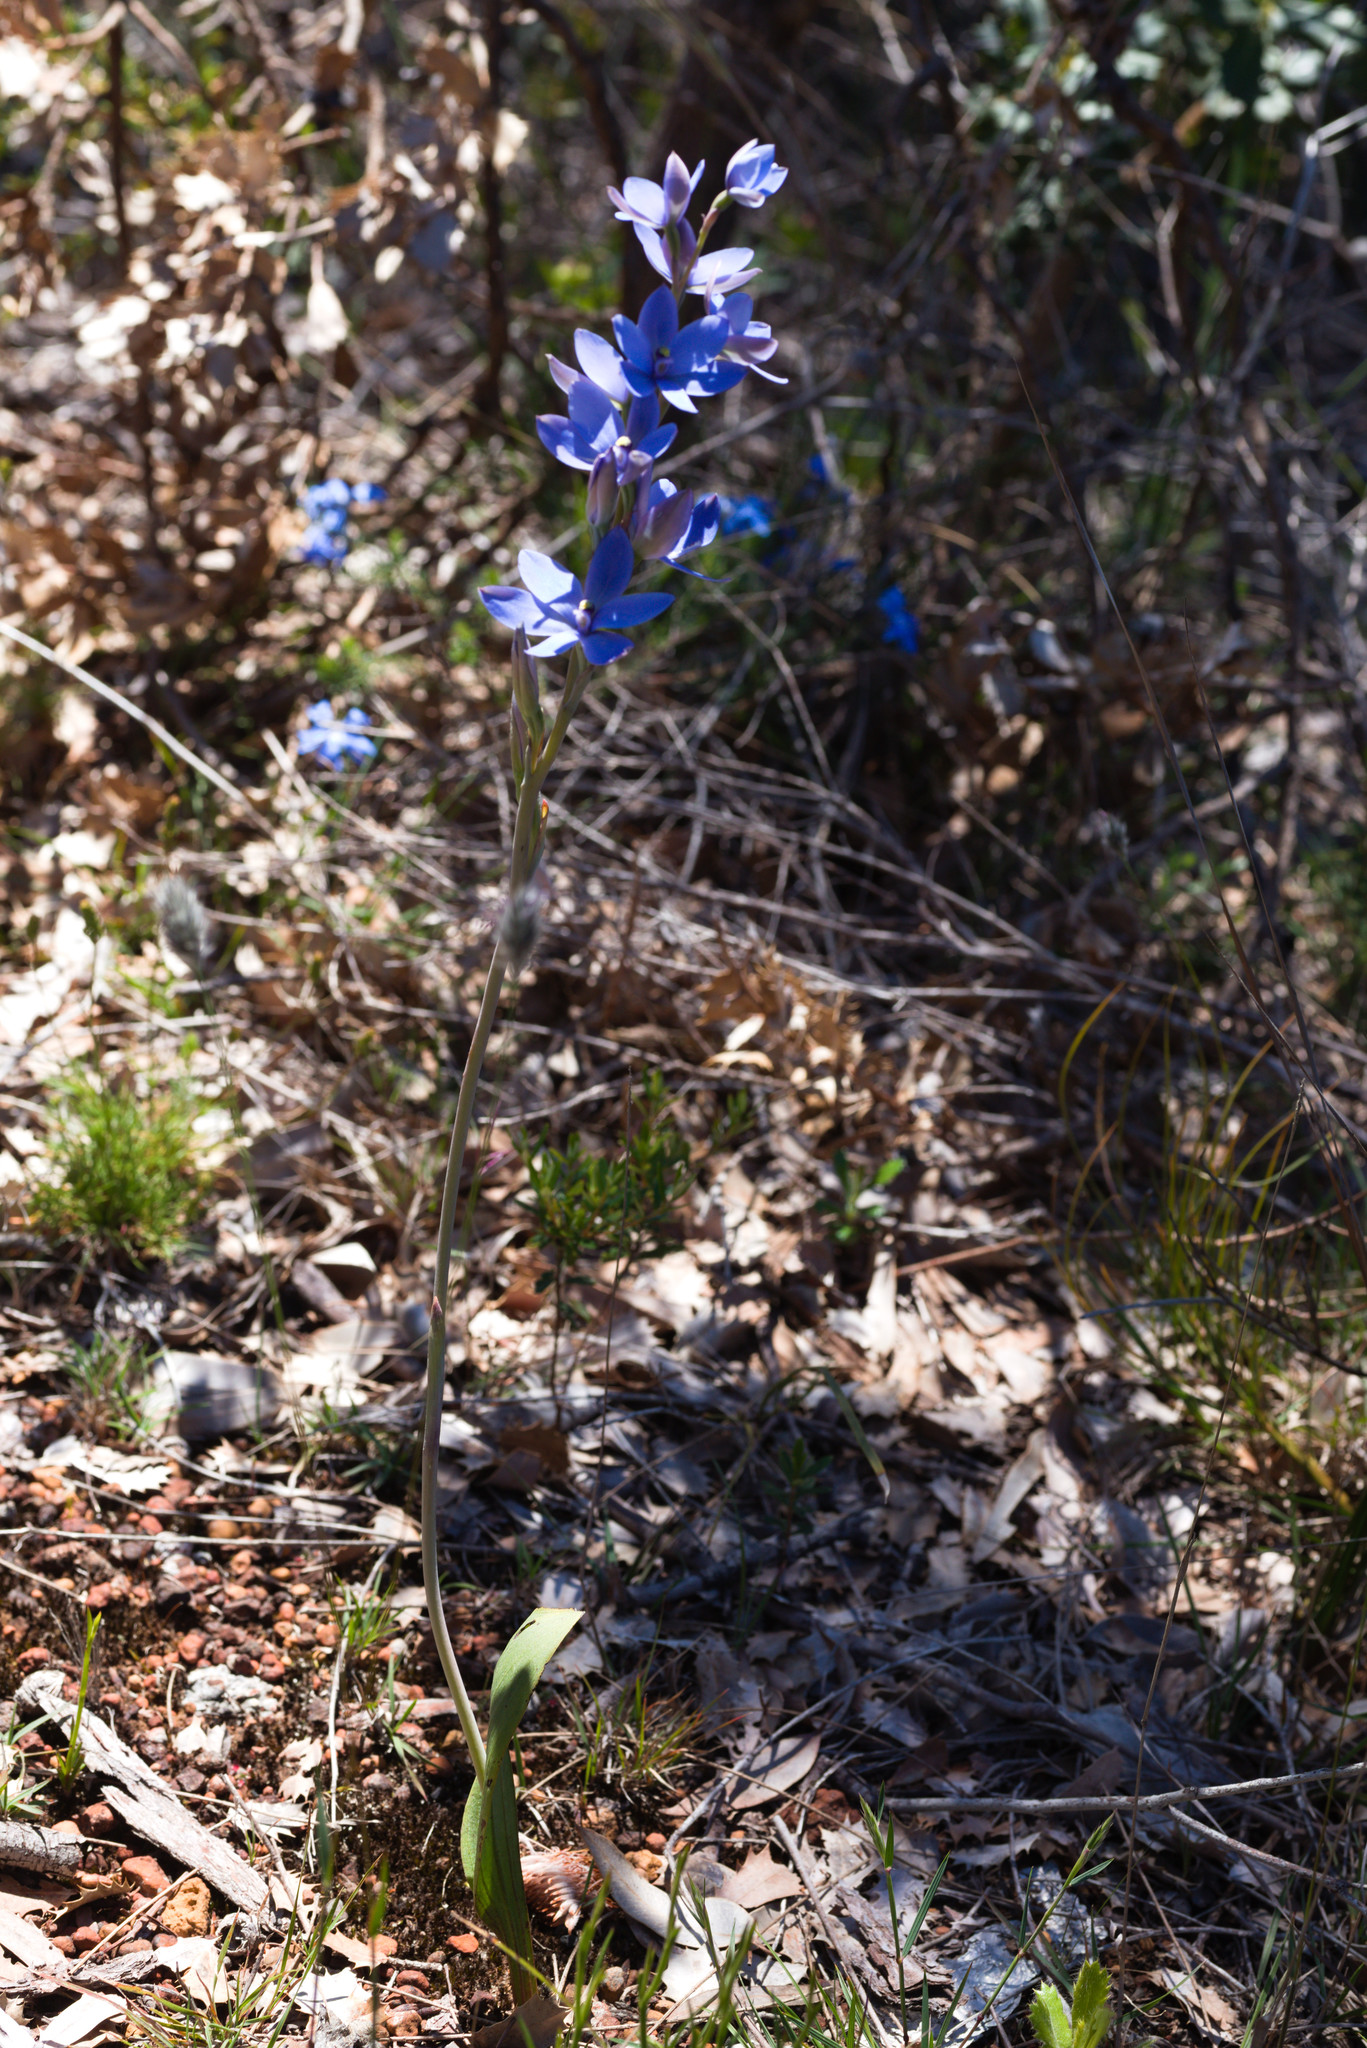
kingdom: Plantae
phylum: Tracheophyta
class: Liliopsida
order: Asparagales
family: Orchidaceae
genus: Thelymitra
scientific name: Thelymitra crinita
